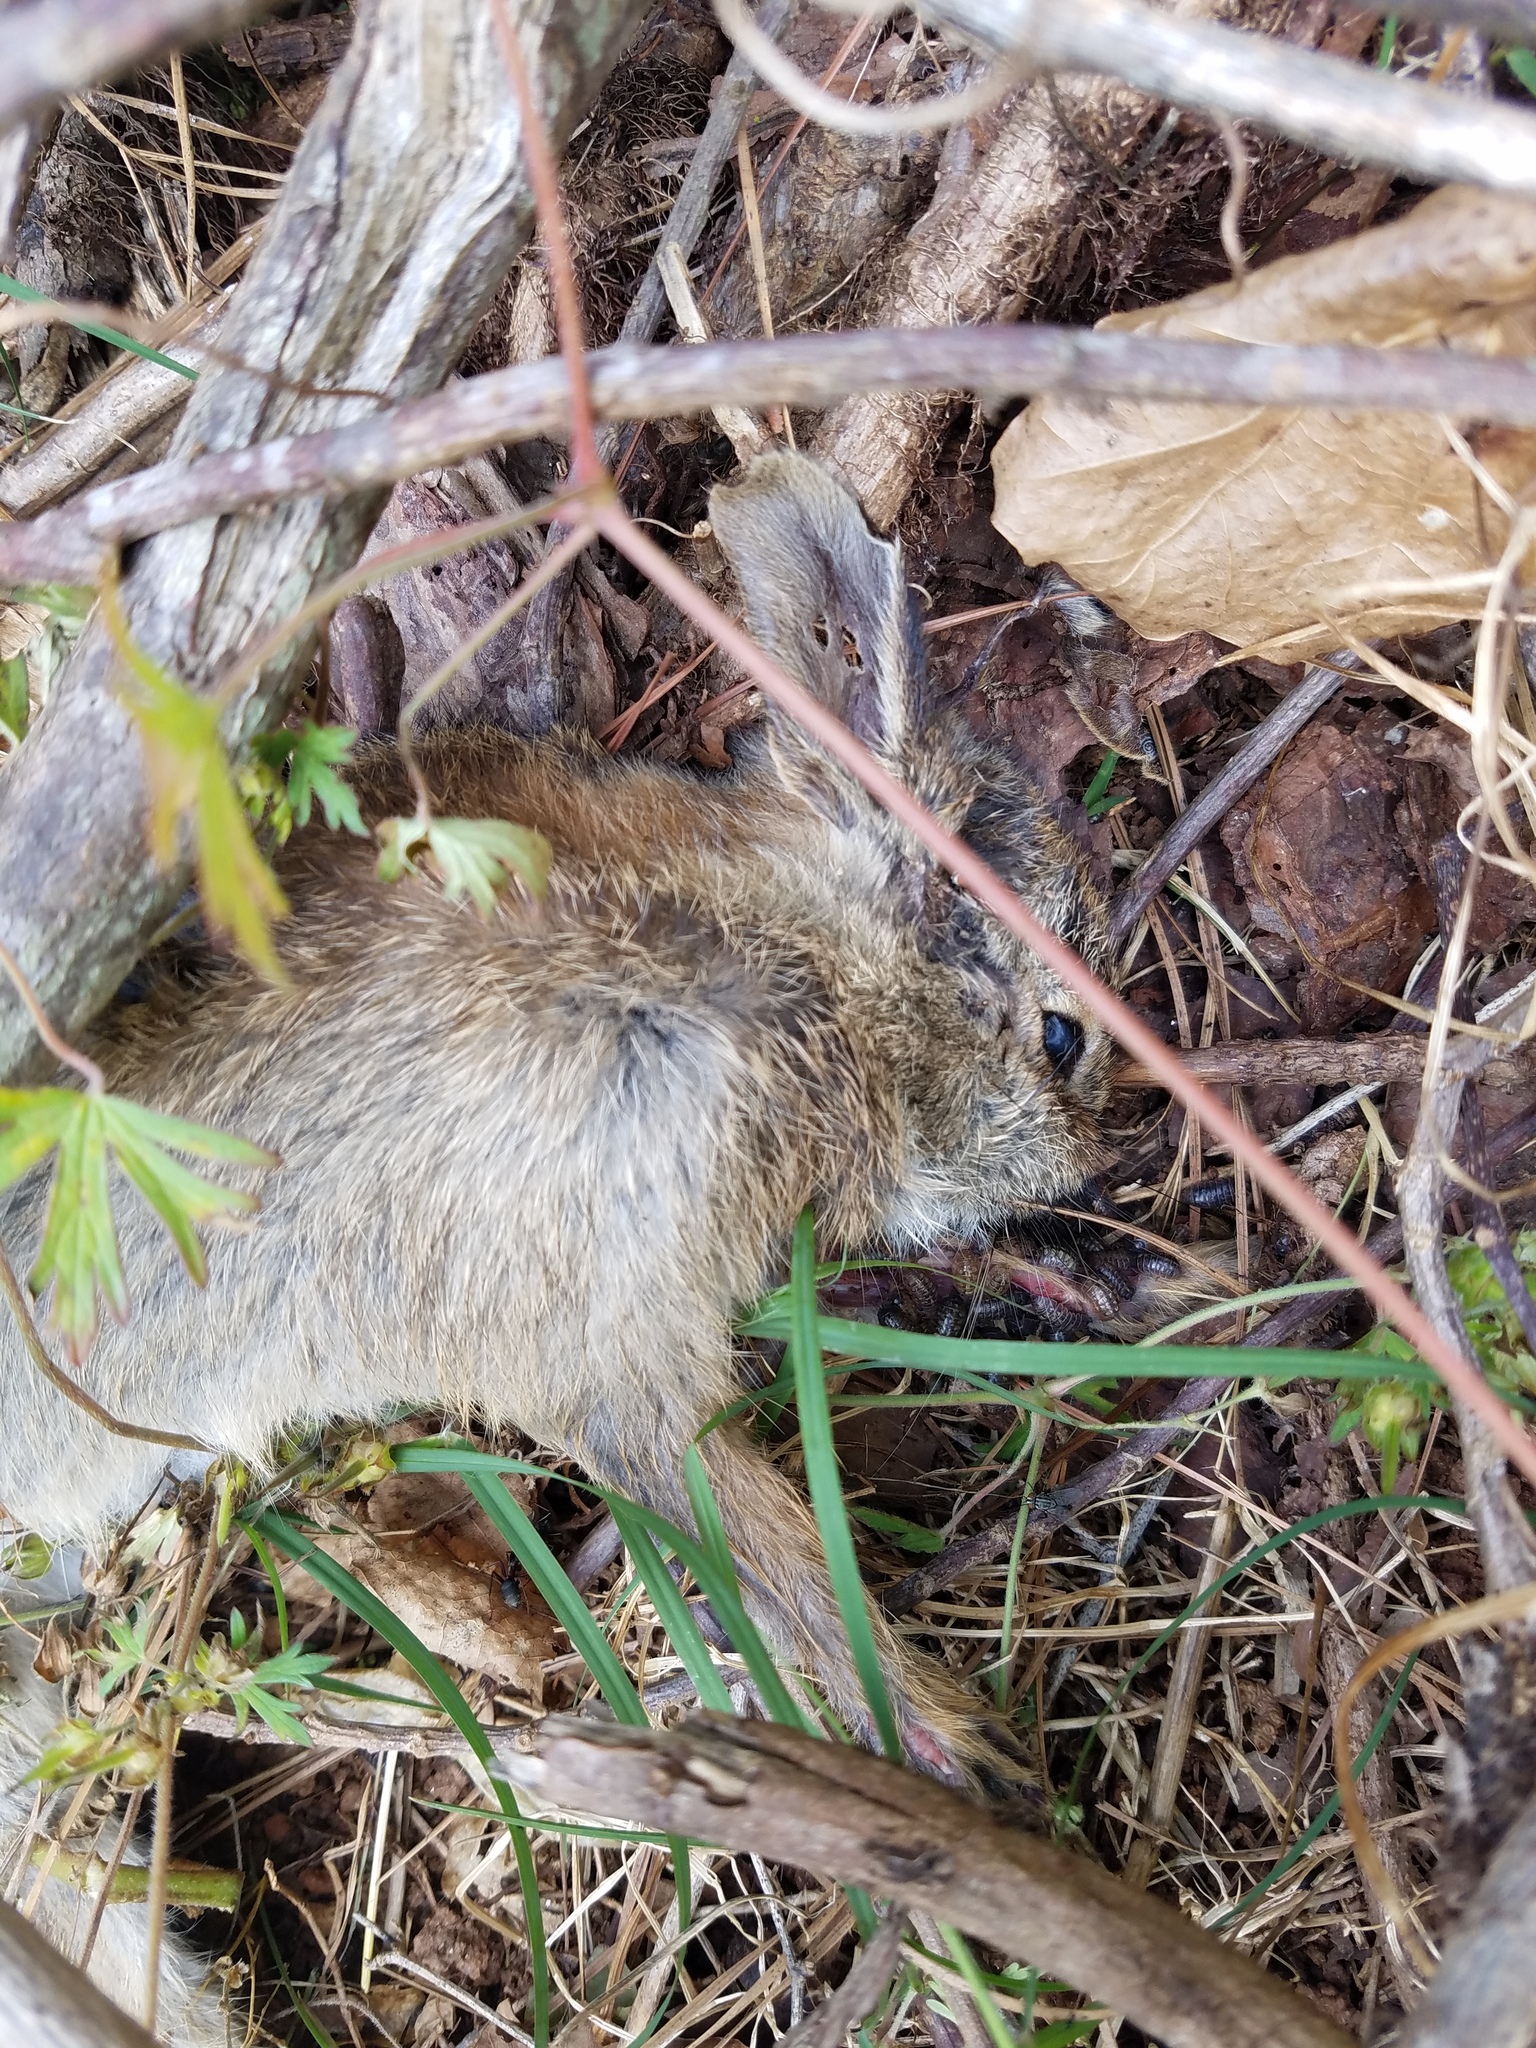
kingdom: Animalia
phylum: Chordata
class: Mammalia
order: Lagomorpha
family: Leporidae
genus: Sylvilagus
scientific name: Sylvilagus floridanus
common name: Eastern cottontail
